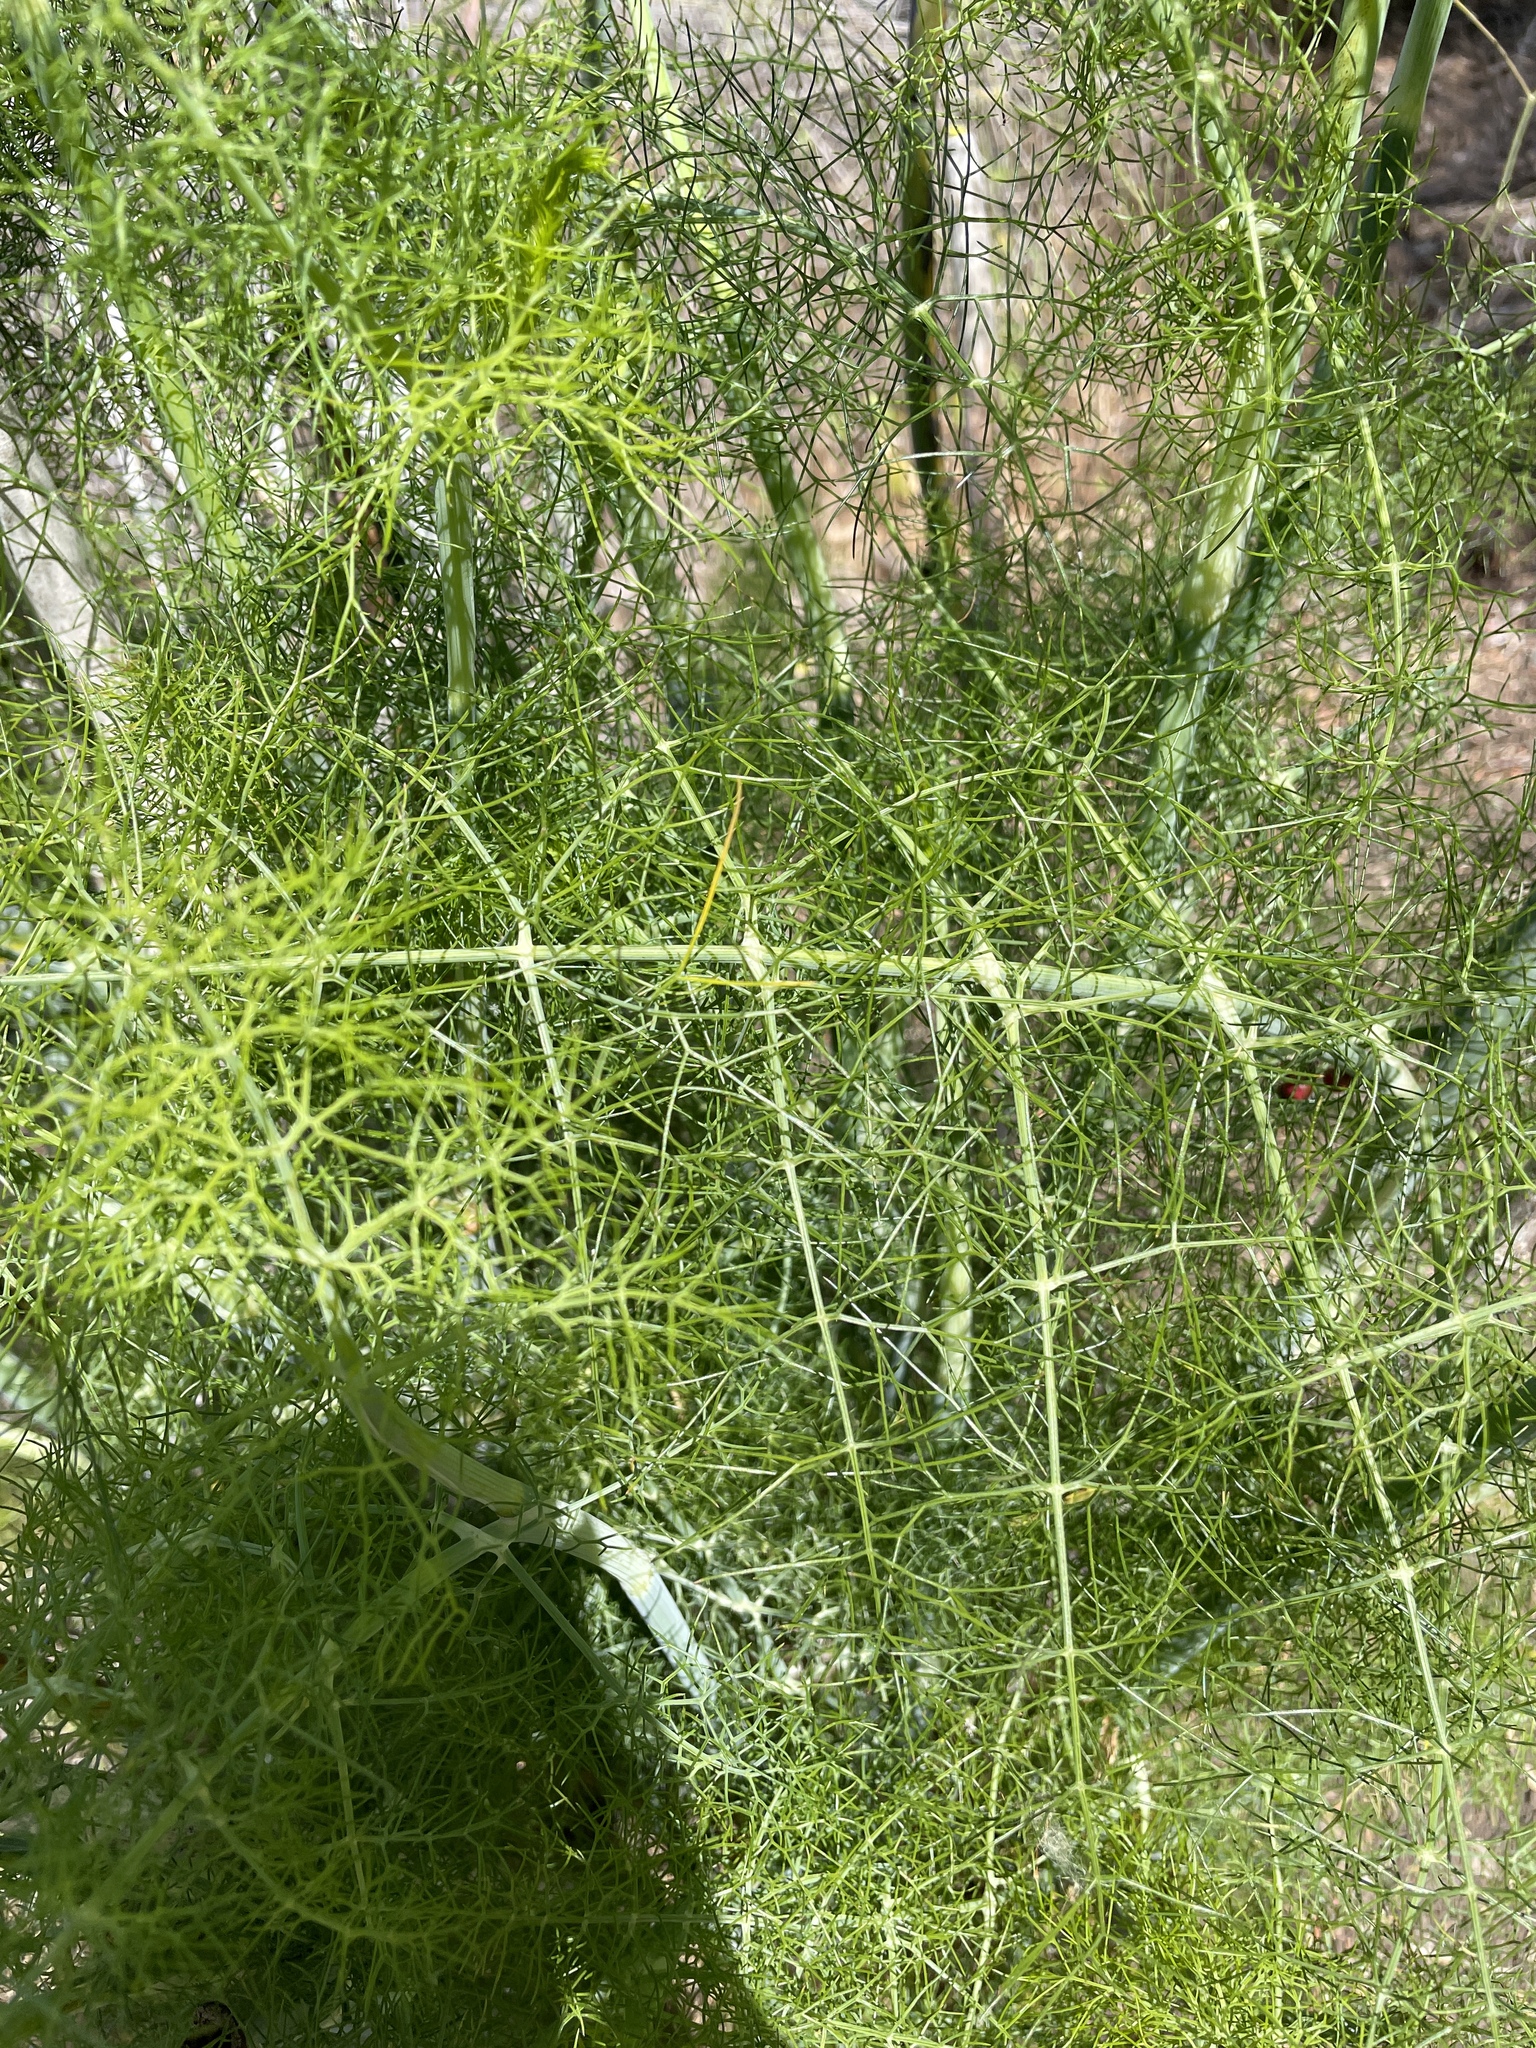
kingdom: Plantae
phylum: Tracheophyta
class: Magnoliopsida
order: Apiales
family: Apiaceae
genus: Foeniculum
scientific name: Foeniculum vulgare
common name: Fennel
